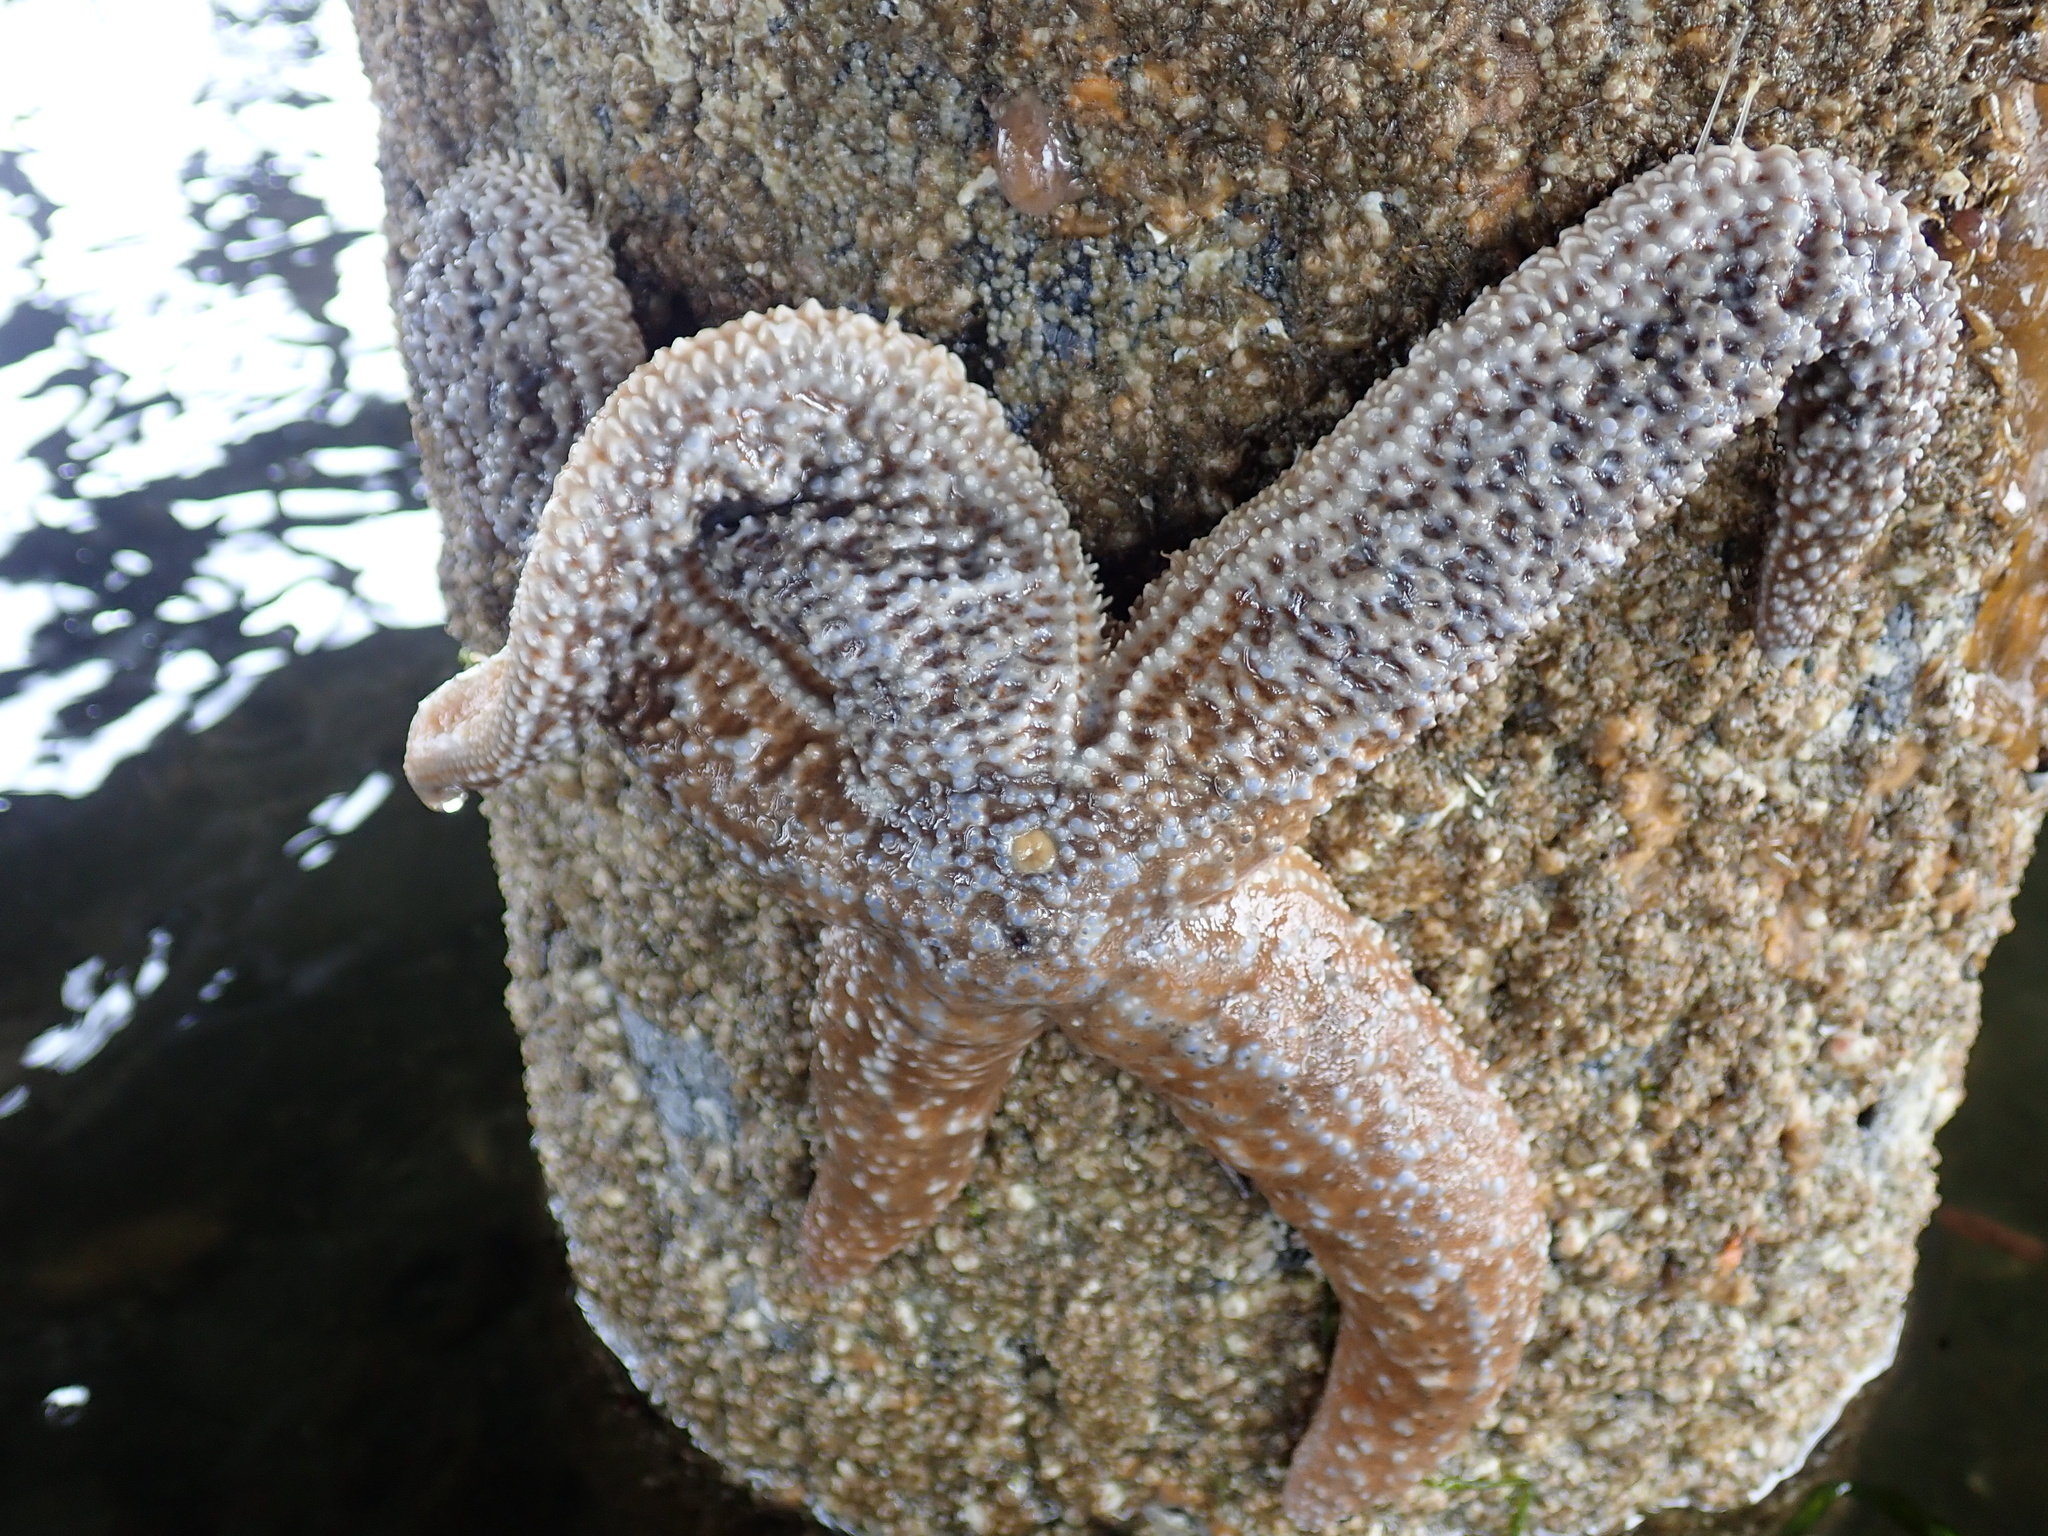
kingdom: Animalia
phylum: Echinodermata
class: Asteroidea
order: Forcipulatida
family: Asteriidae
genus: Evasterias
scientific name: Evasterias troschelii
